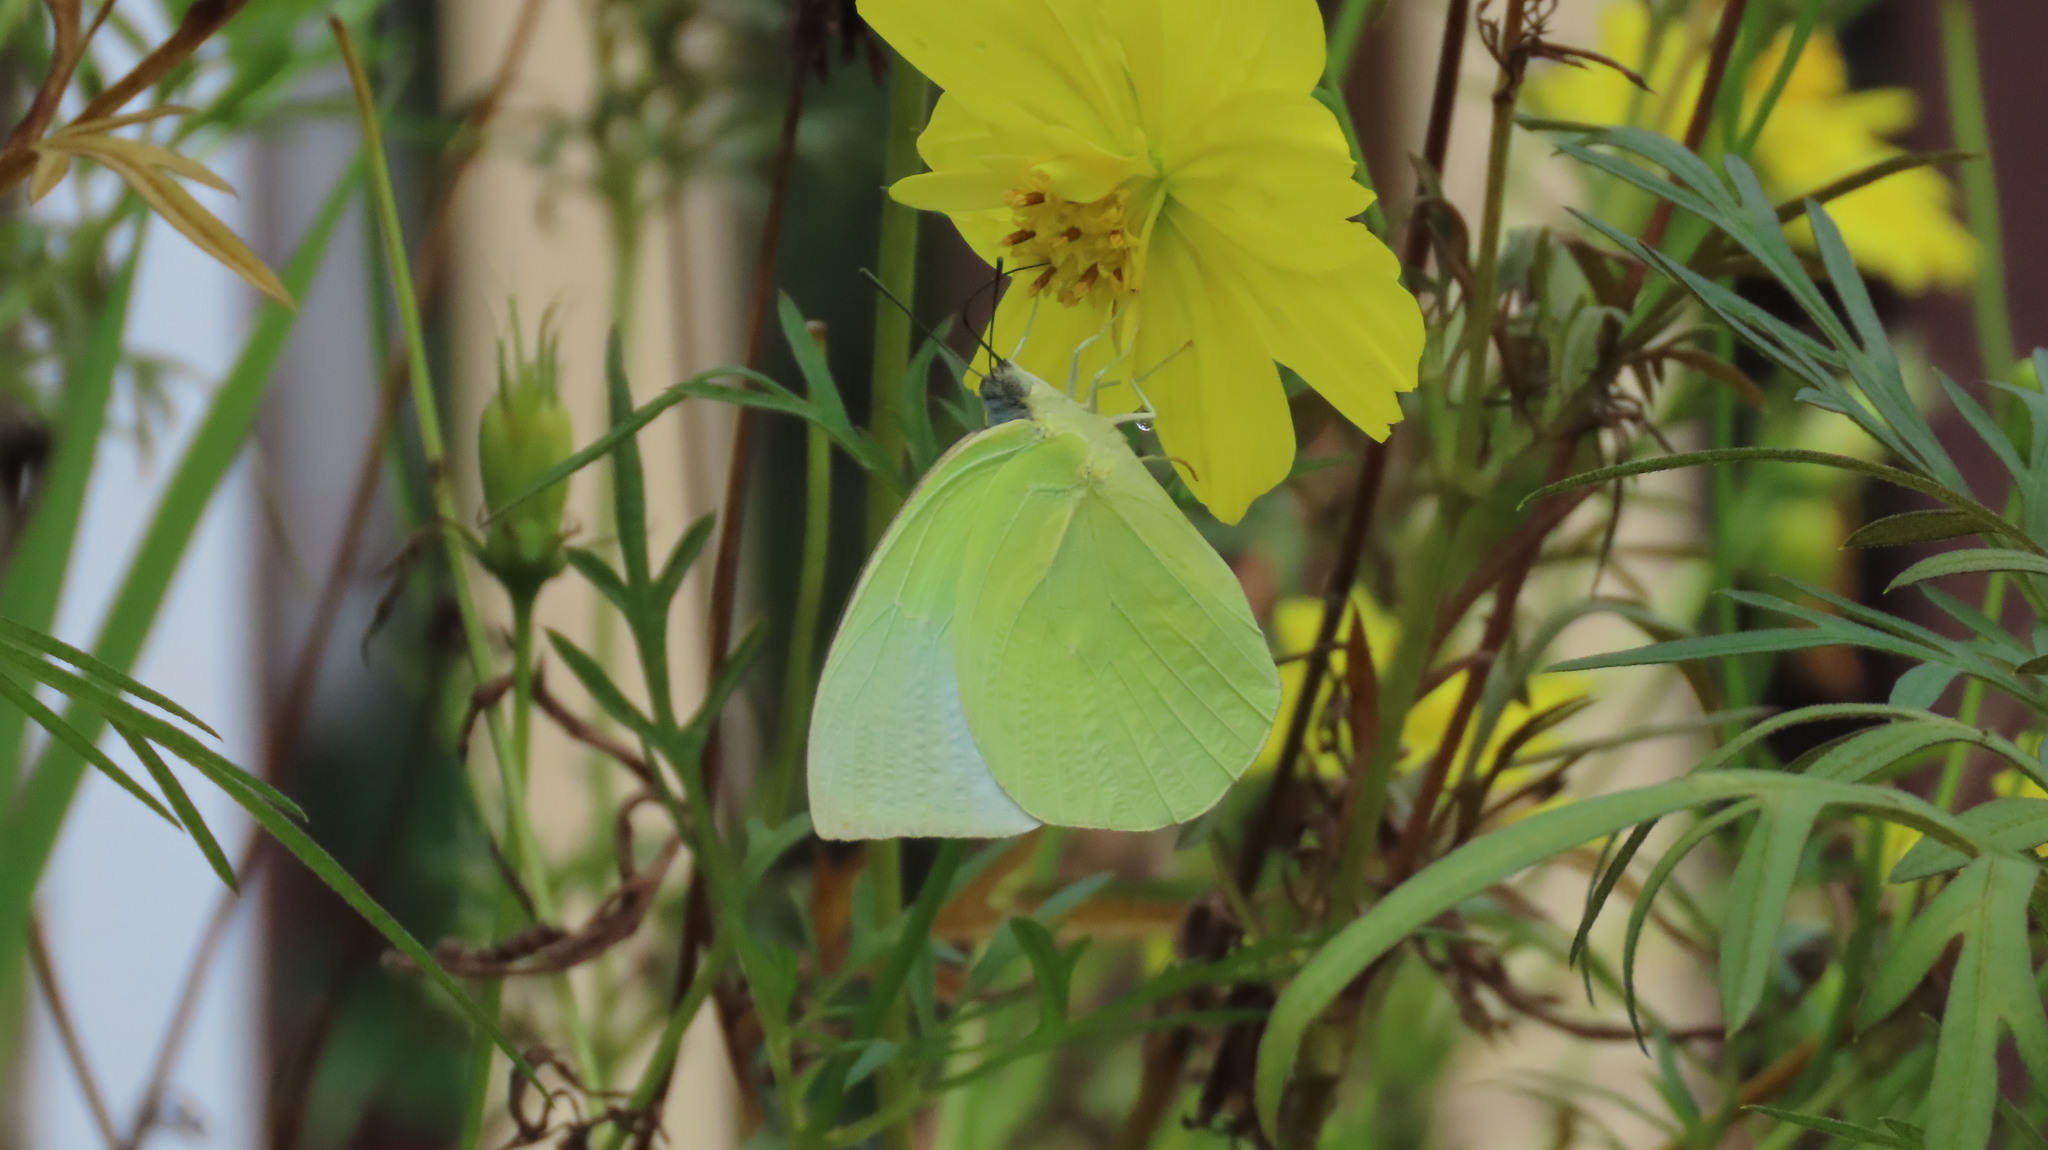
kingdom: Animalia
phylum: Arthropoda
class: Insecta
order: Lepidoptera
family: Pieridae
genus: Catopsilia
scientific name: Catopsilia pomona
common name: Common emigrant
